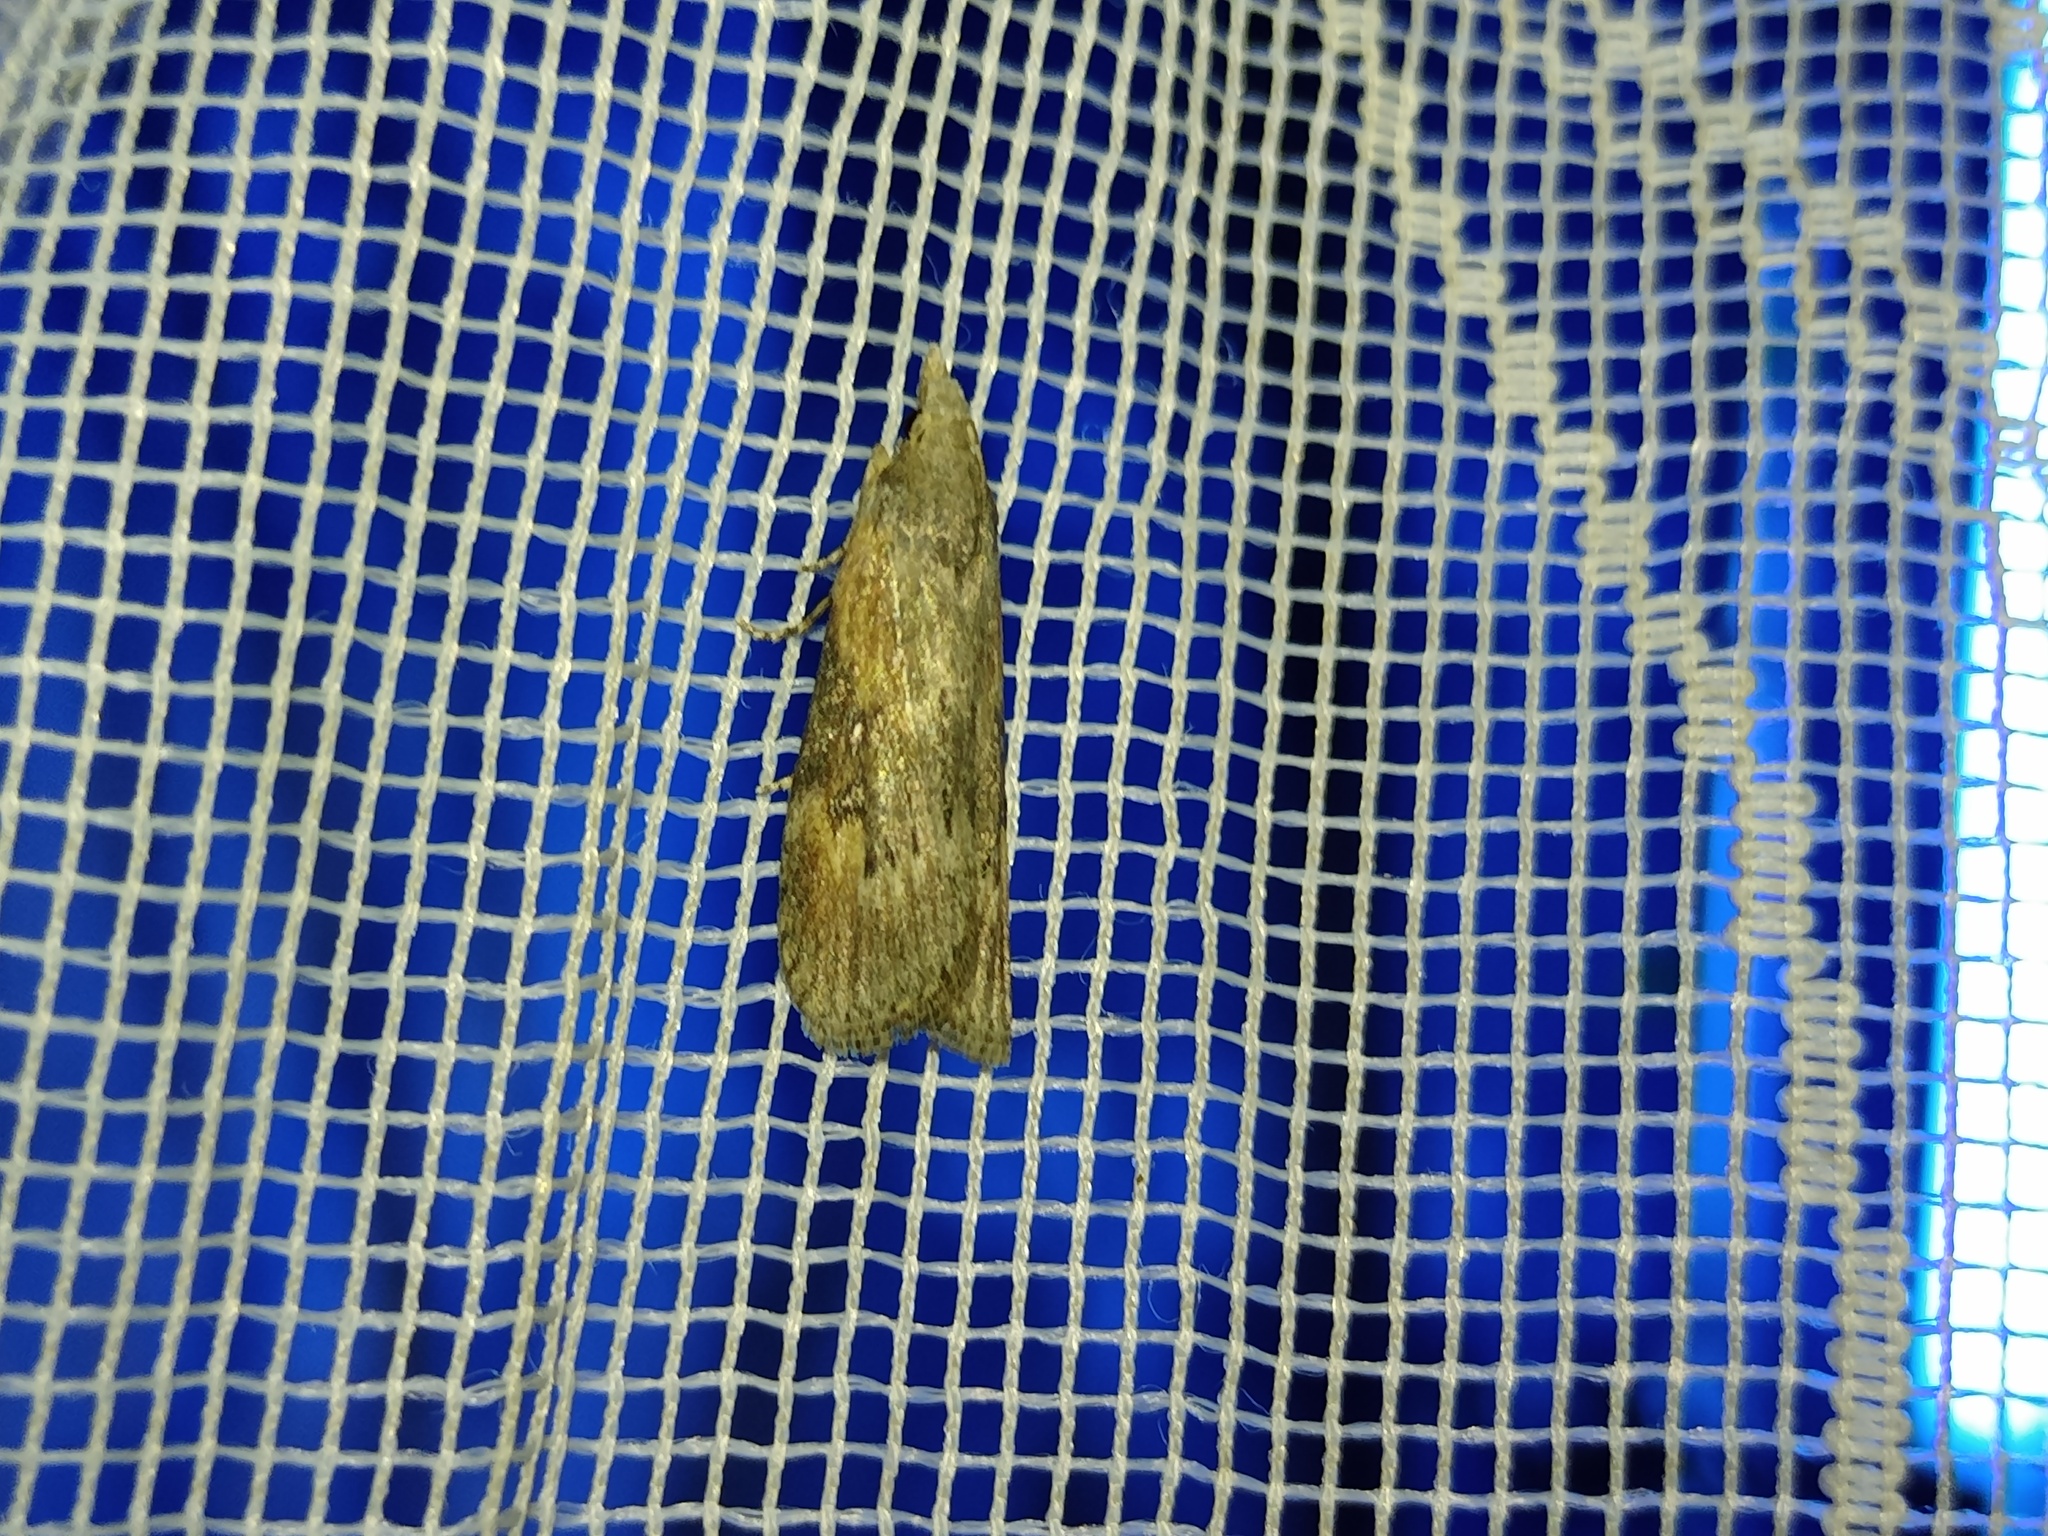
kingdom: Animalia
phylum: Arthropoda
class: Insecta
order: Lepidoptera
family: Pyralidae
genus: Lamoria
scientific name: Lamoria anella
